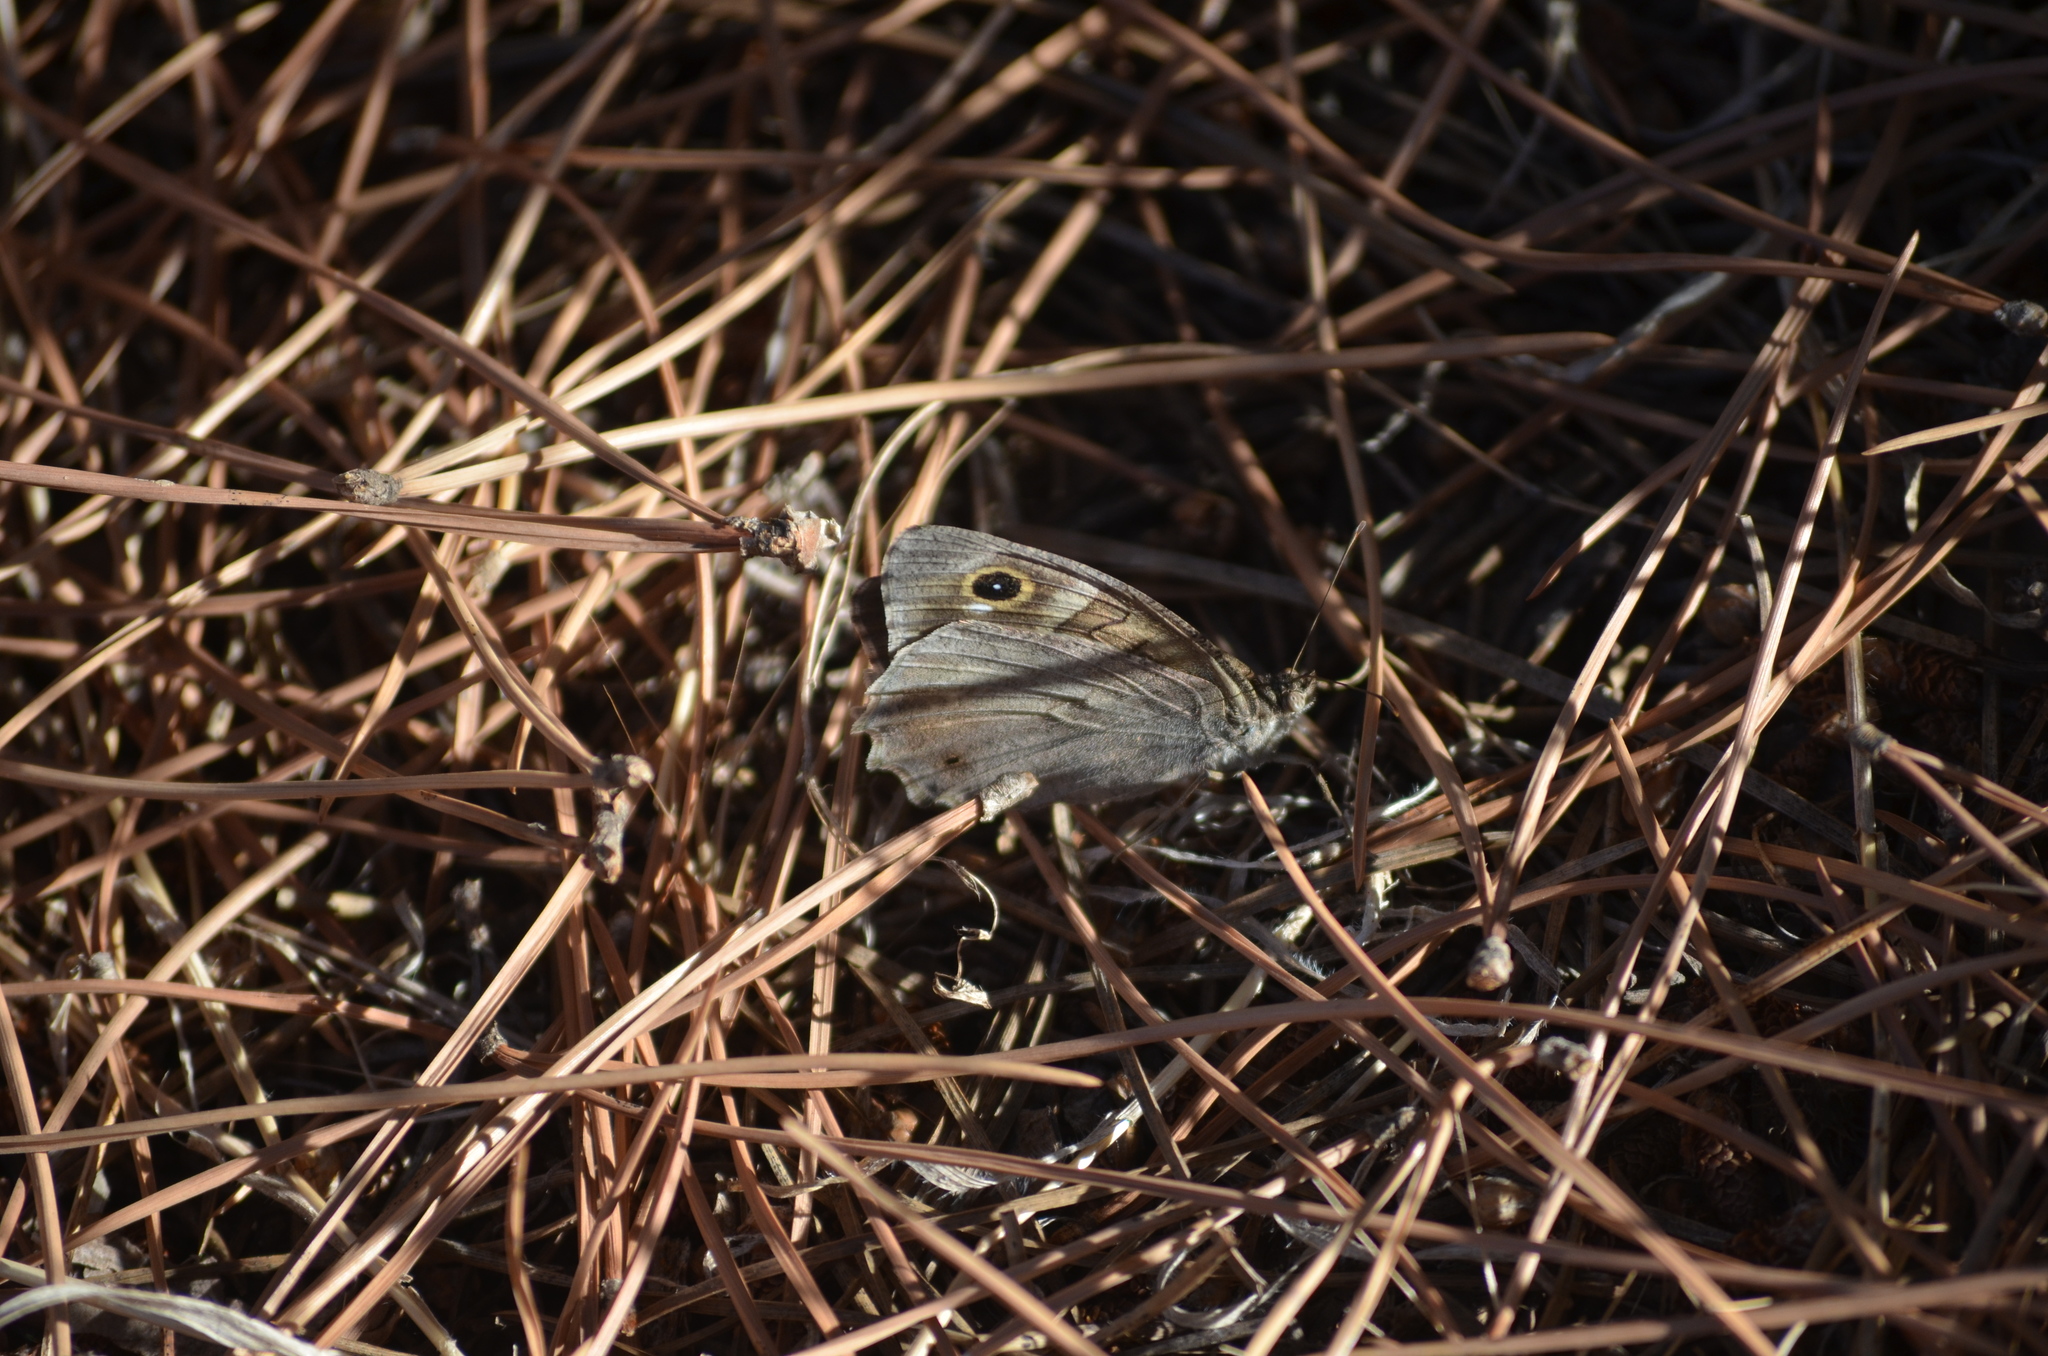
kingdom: Animalia
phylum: Arthropoda
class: Insecta
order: Lepidoptera
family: Nymphalidae
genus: Hipparchia
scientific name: Hipparchia statilinus
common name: Tree grayling
